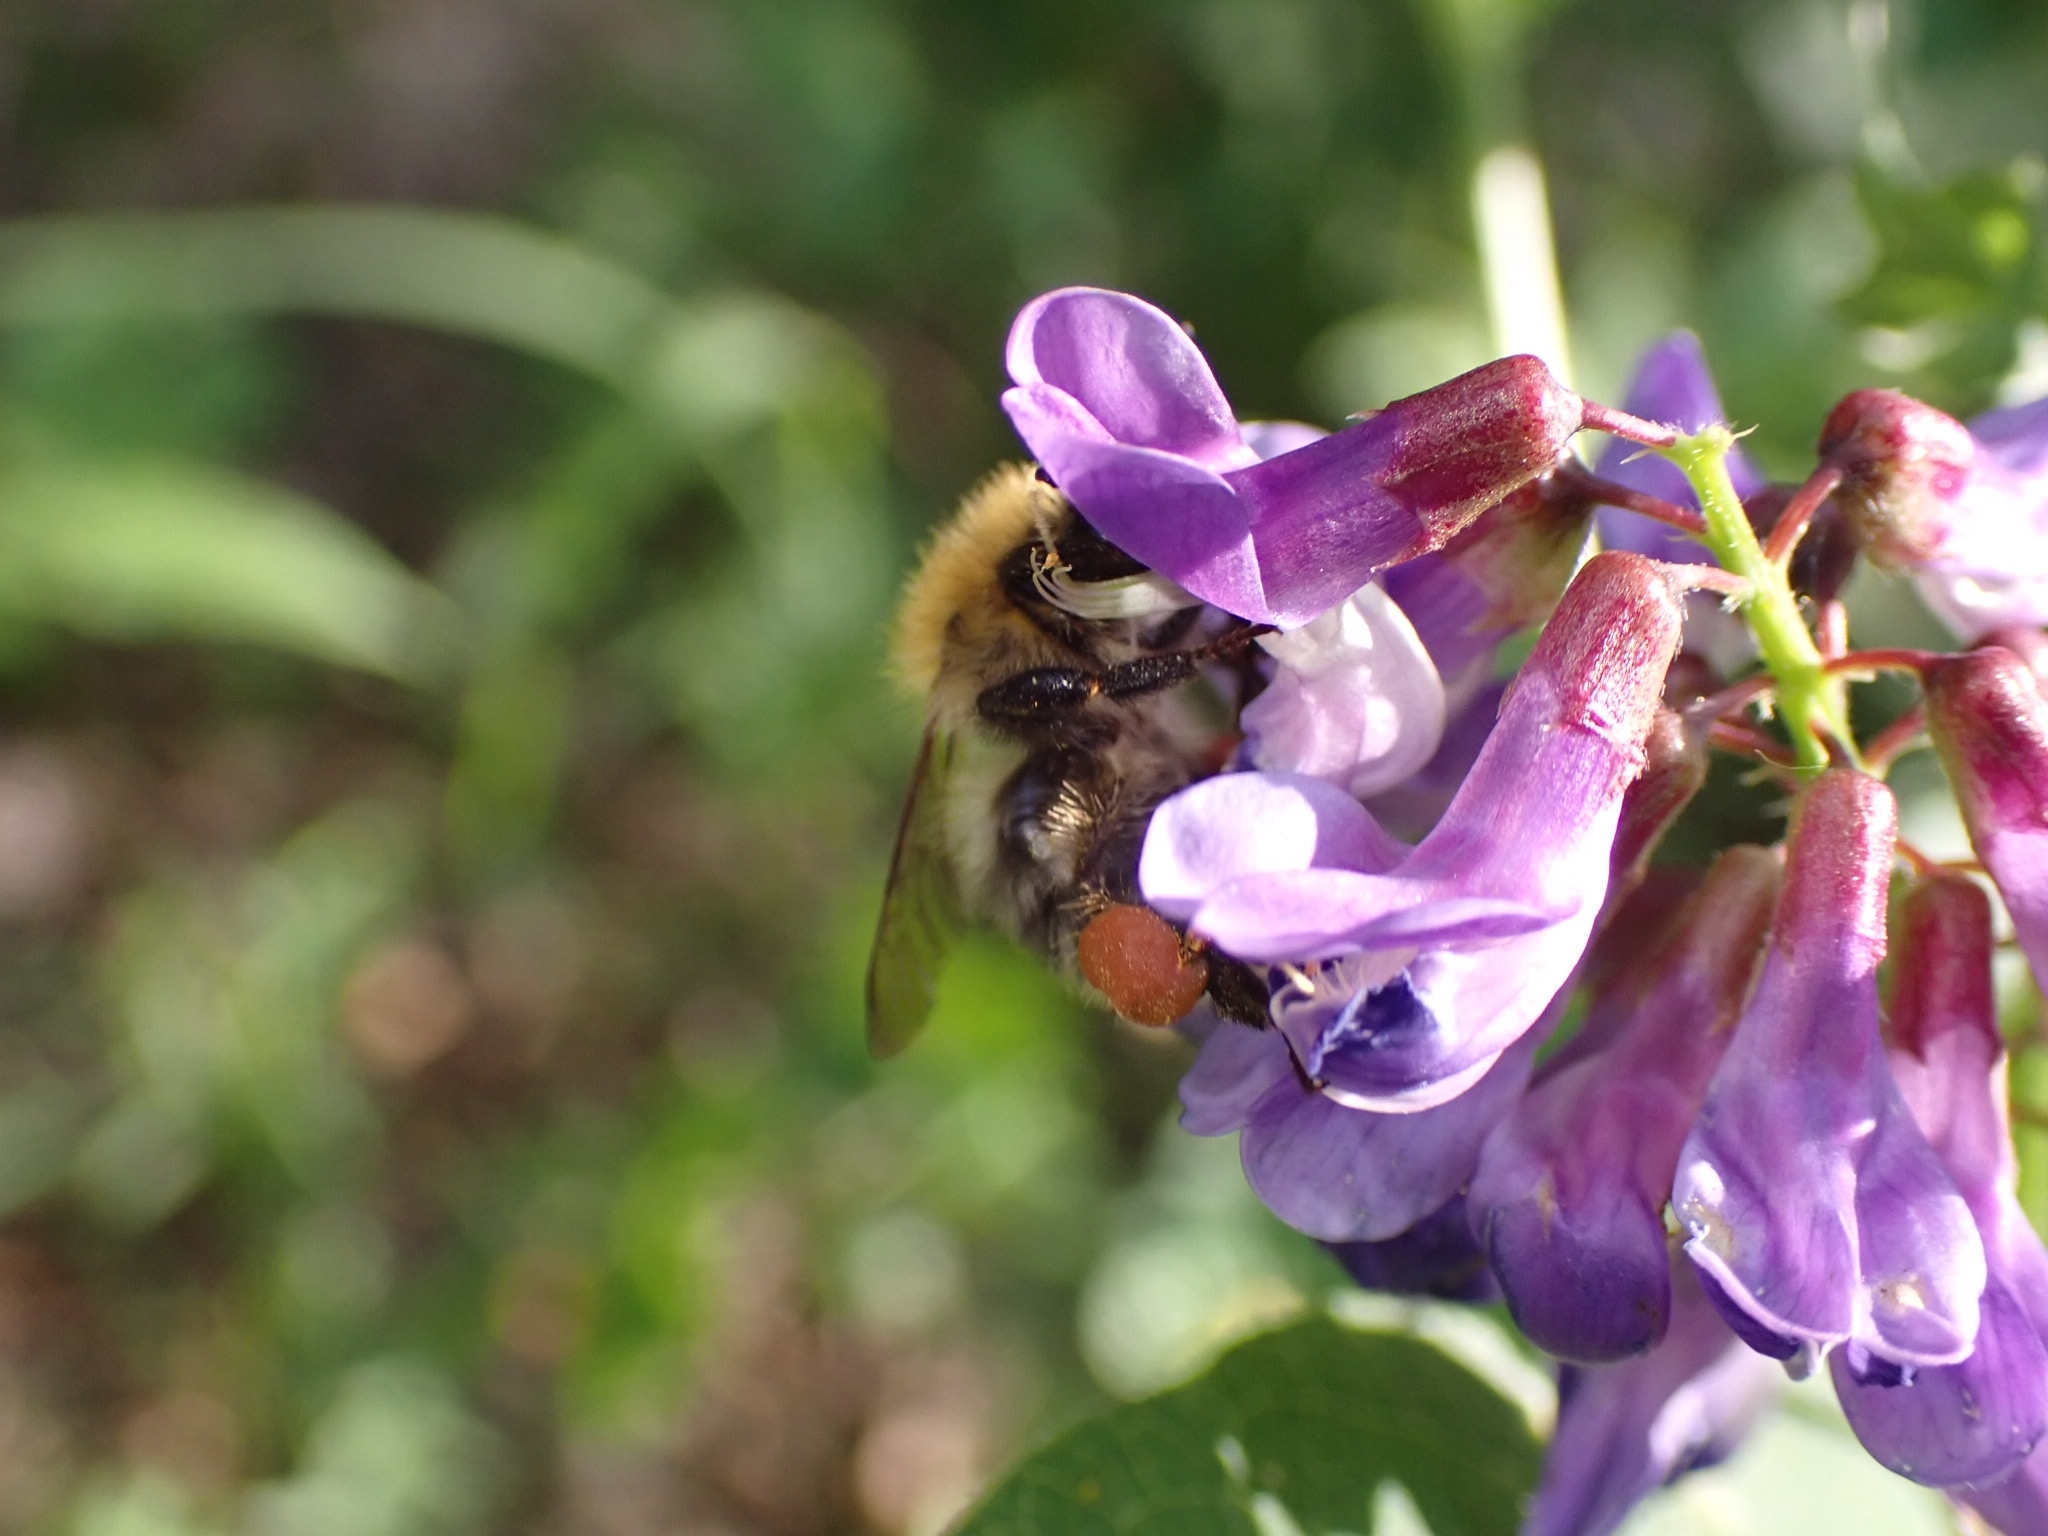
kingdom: Animalia
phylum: Arthropoda
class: Insecta
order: Hymenoptera
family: Apidae
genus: Bombus
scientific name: Bombus pascuorum
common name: Common carder bee
